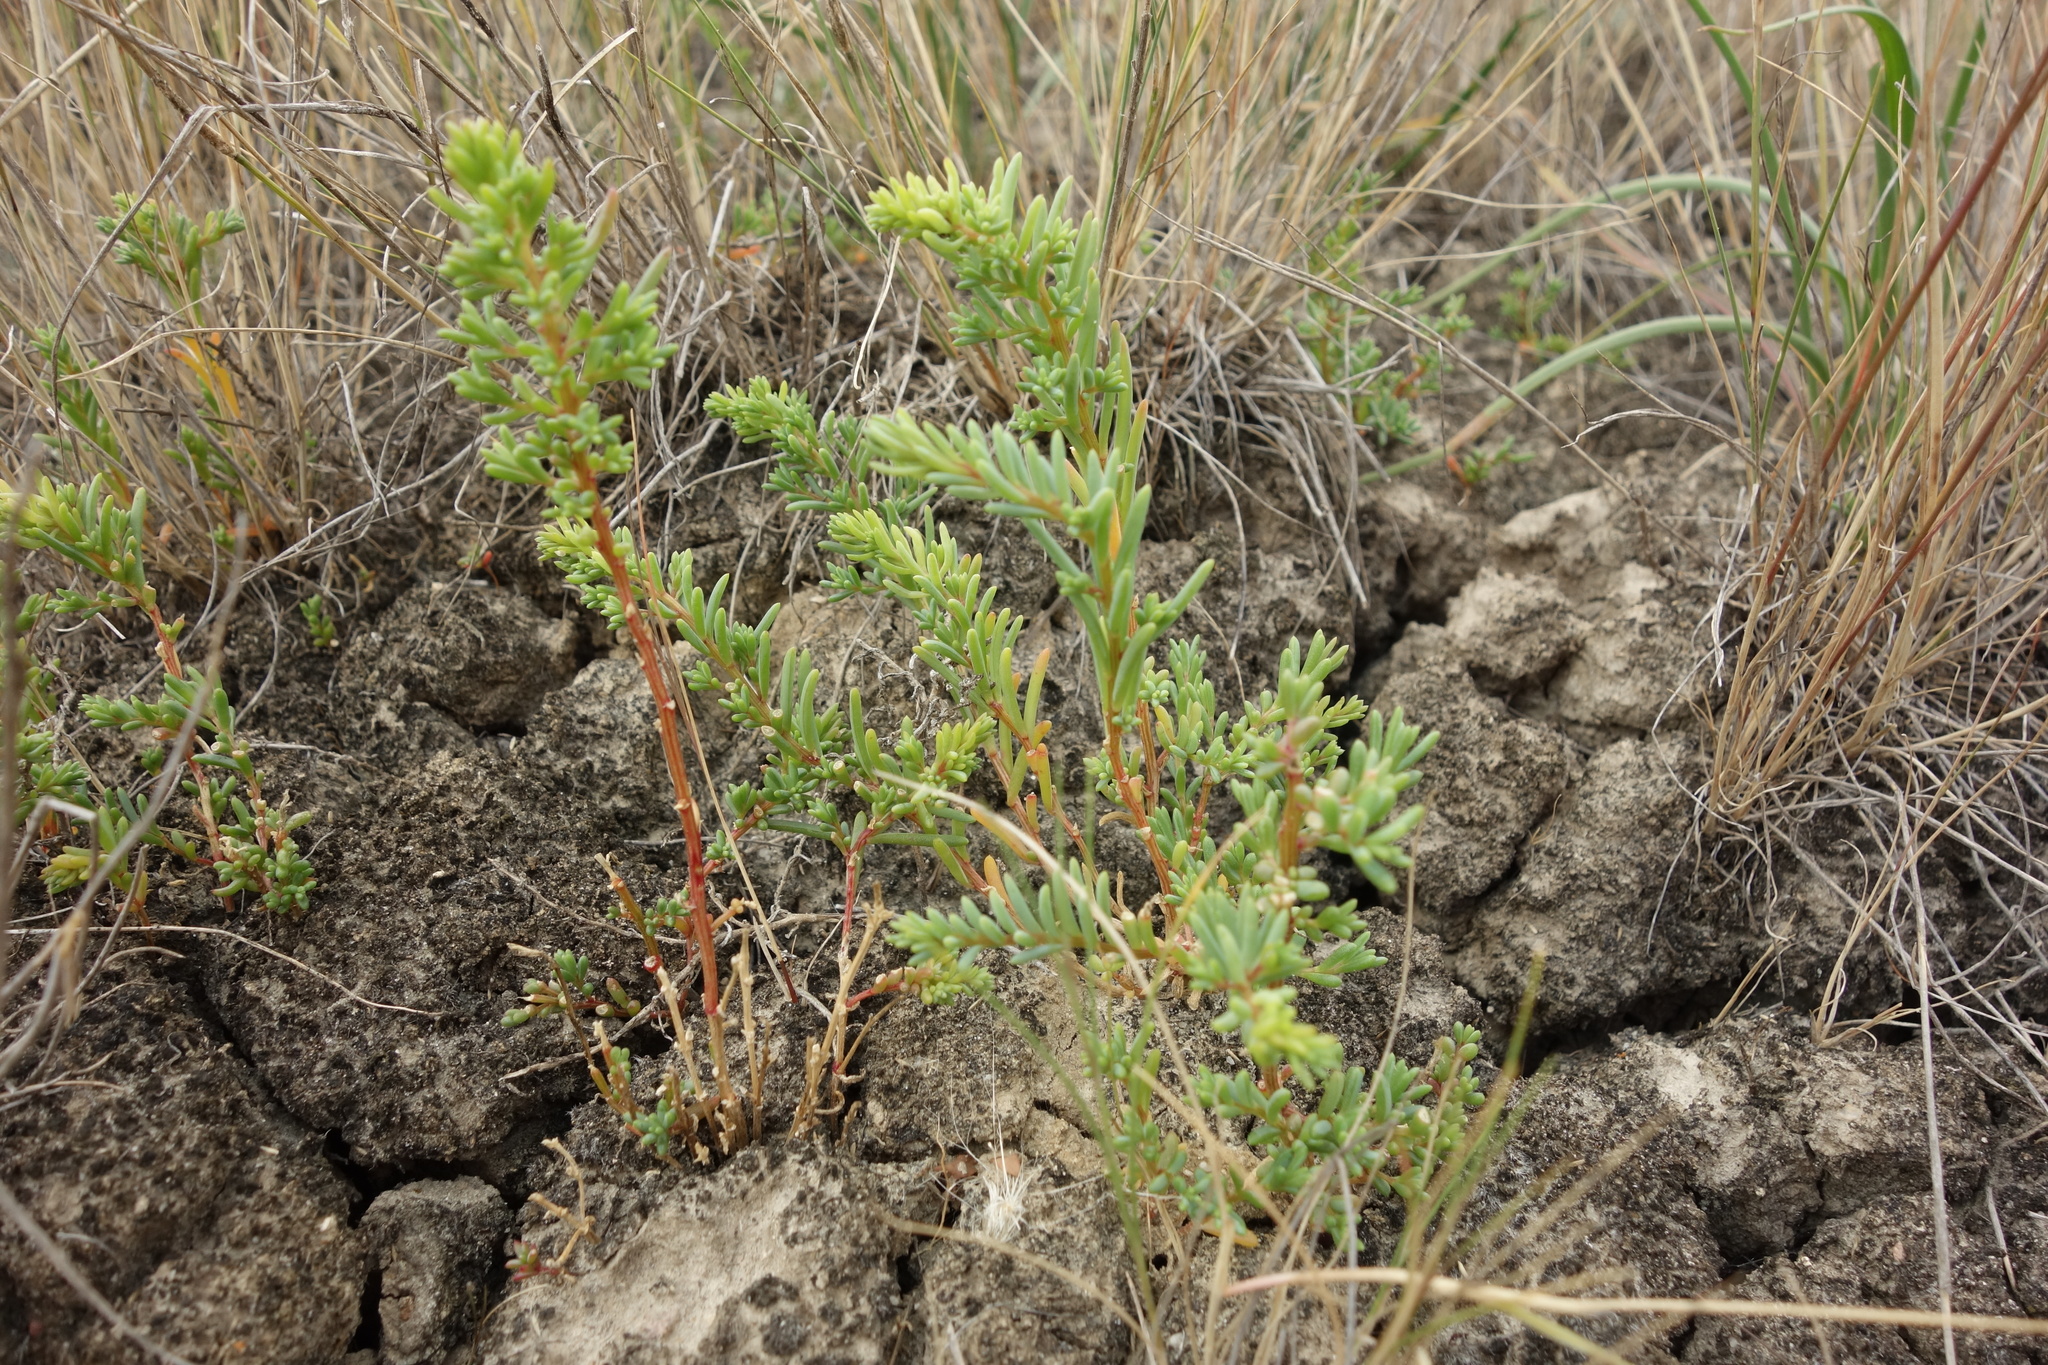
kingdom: Plantae
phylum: Tracheophyta
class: Magnoliopsida
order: Caryophyllales
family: Amaranthaceae
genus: Suaeda
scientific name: Suaeda prostrata
